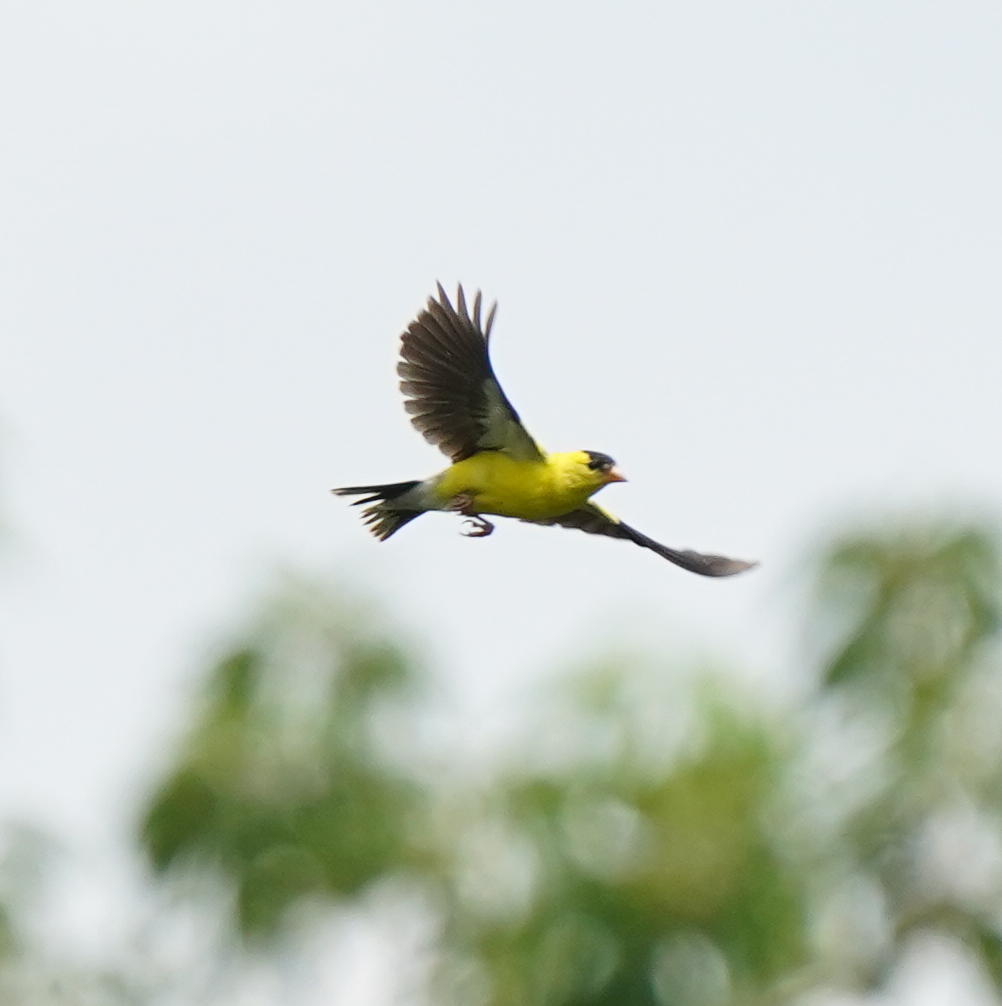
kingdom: Animalia
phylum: Chordata
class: Aves
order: Passeriformes
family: Fringillidae
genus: Spinus
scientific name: Spinus tristis
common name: American goldfinch
